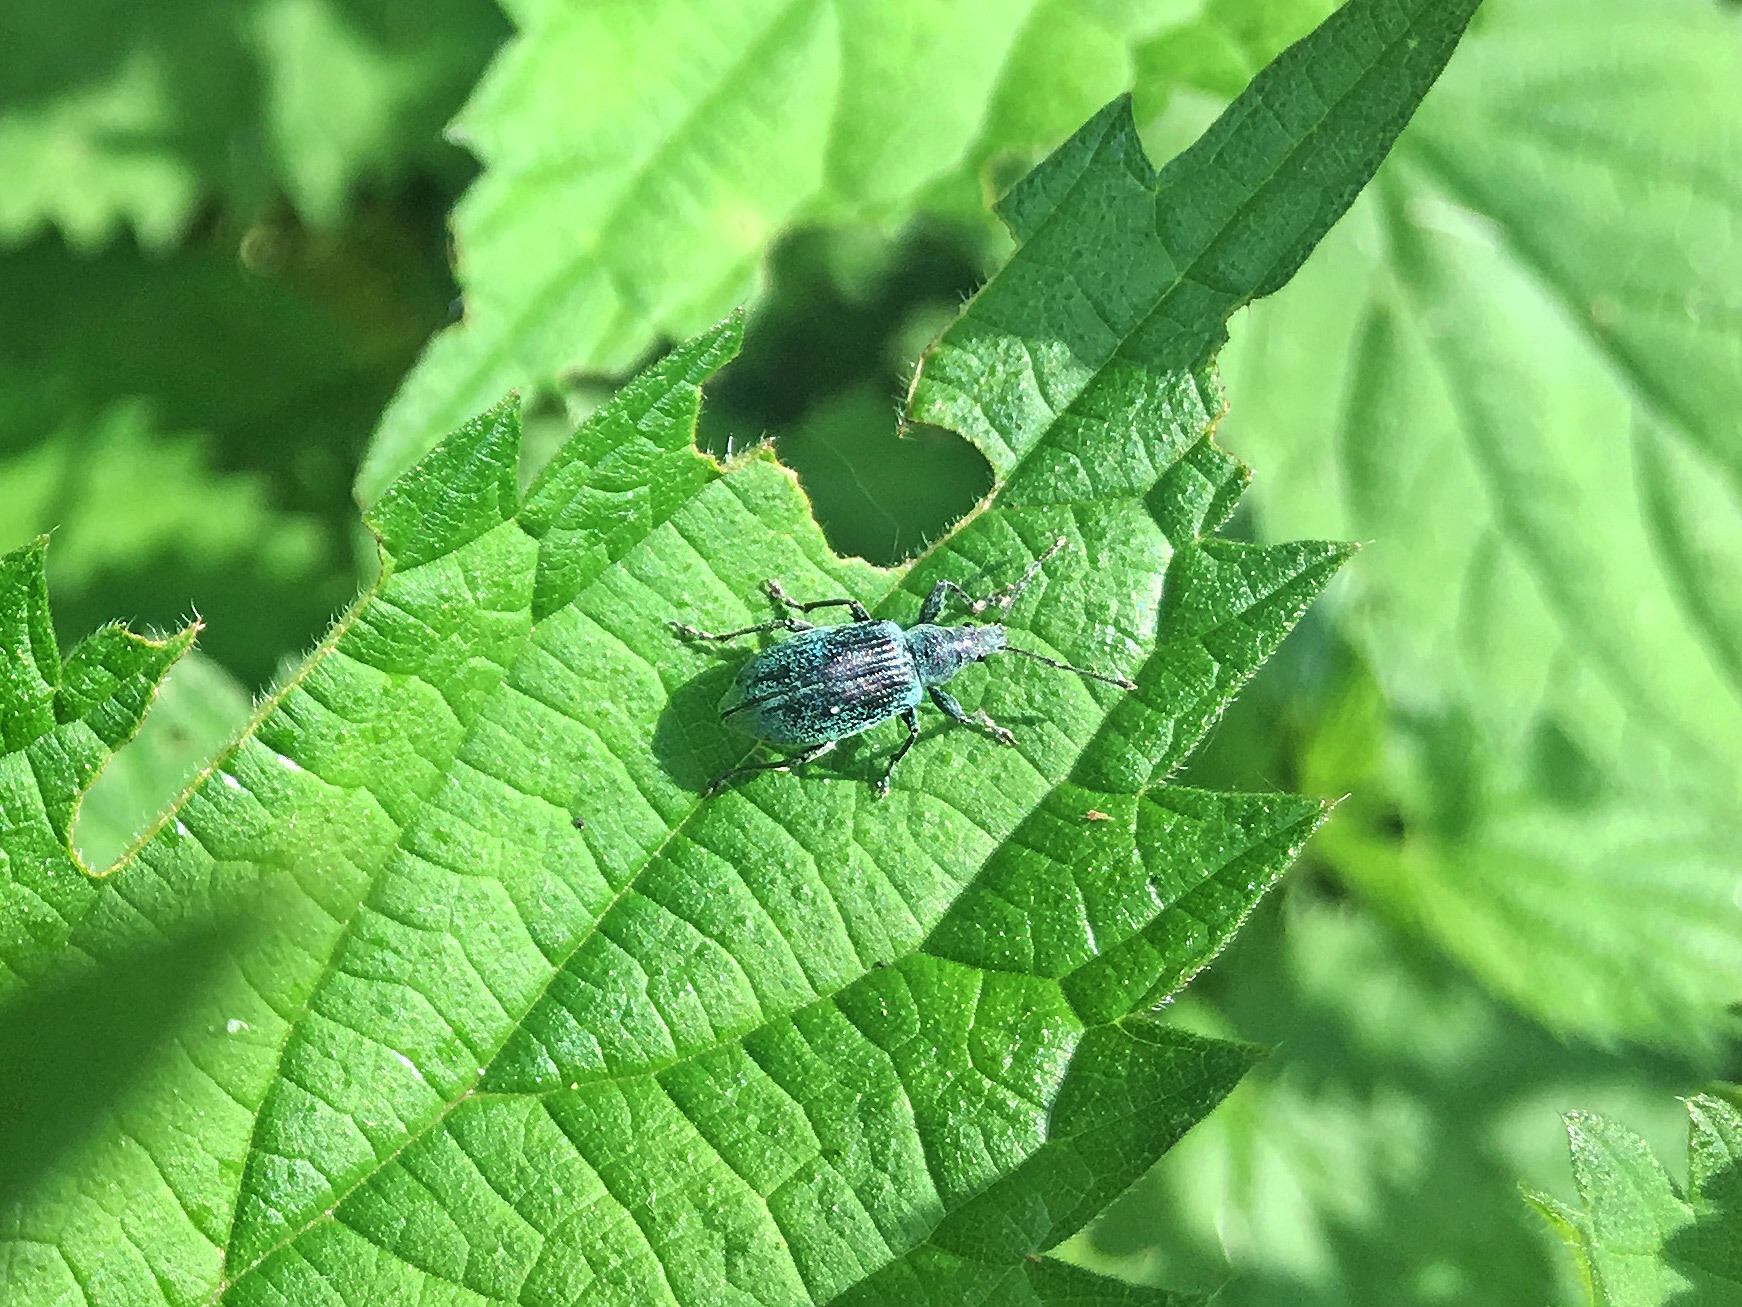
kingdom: Animalia
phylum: Arthropoda
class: Insecta
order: Coleoptera
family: Curculionidae
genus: Phyllobius
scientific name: Phyllobius pomaceus
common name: Green nettle weevil
